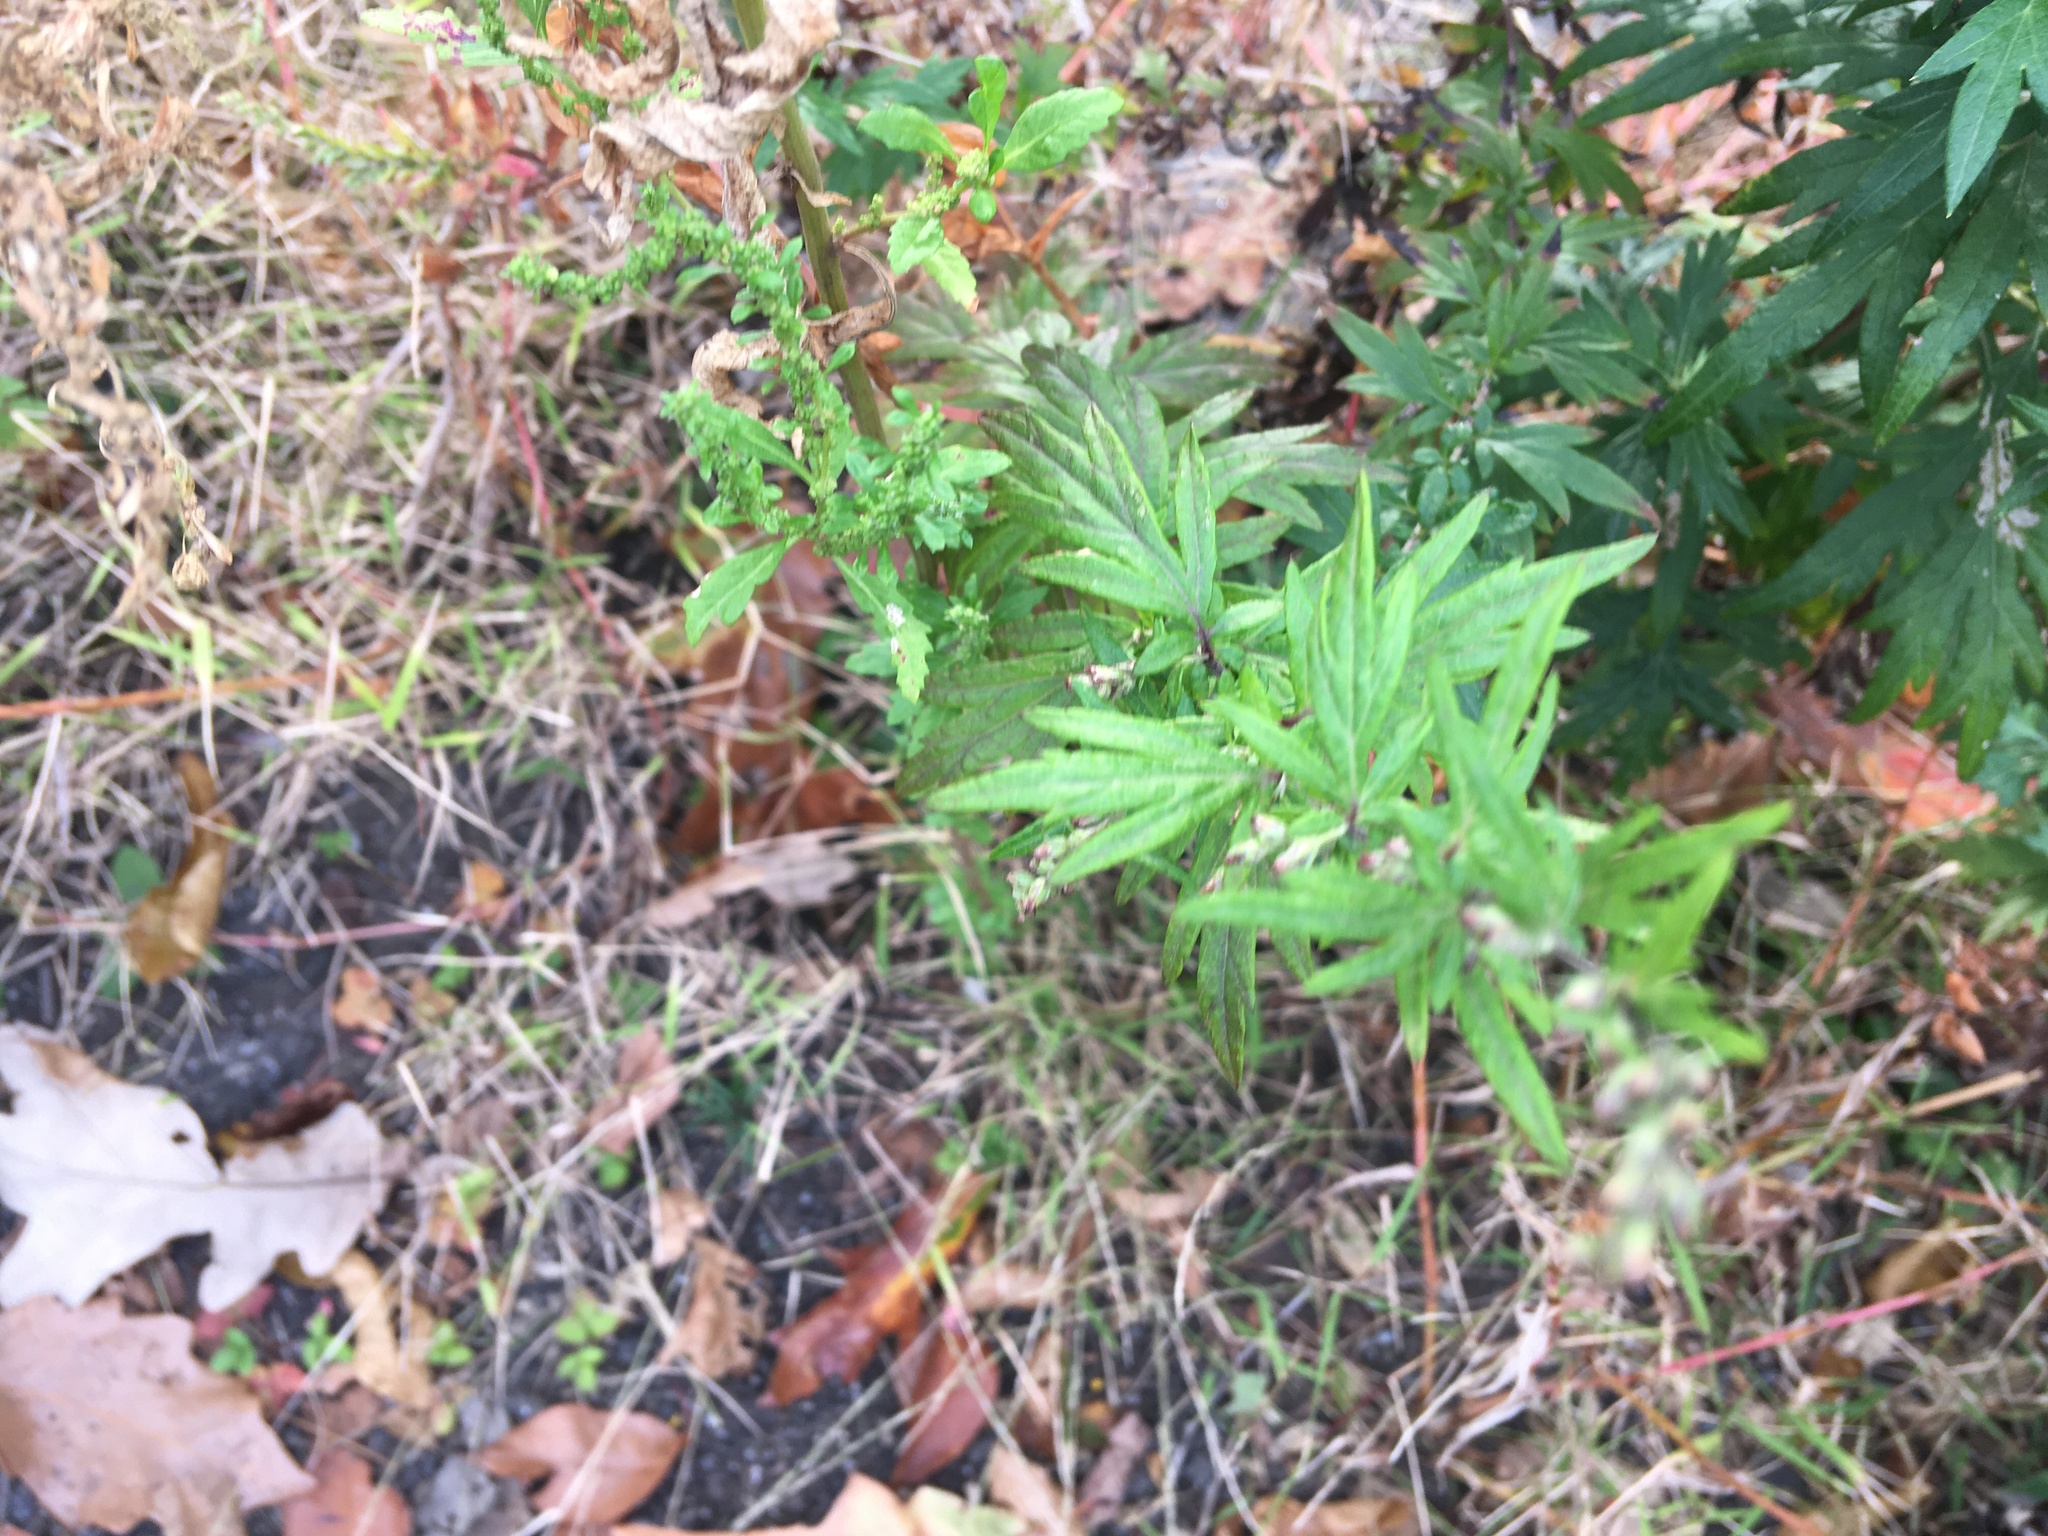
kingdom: Plantae
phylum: Tracheophyta
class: Magnoliopsida
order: Asterales
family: Asteraceae
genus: Artemisia
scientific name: Artemisia vulgaris
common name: Mugwort
